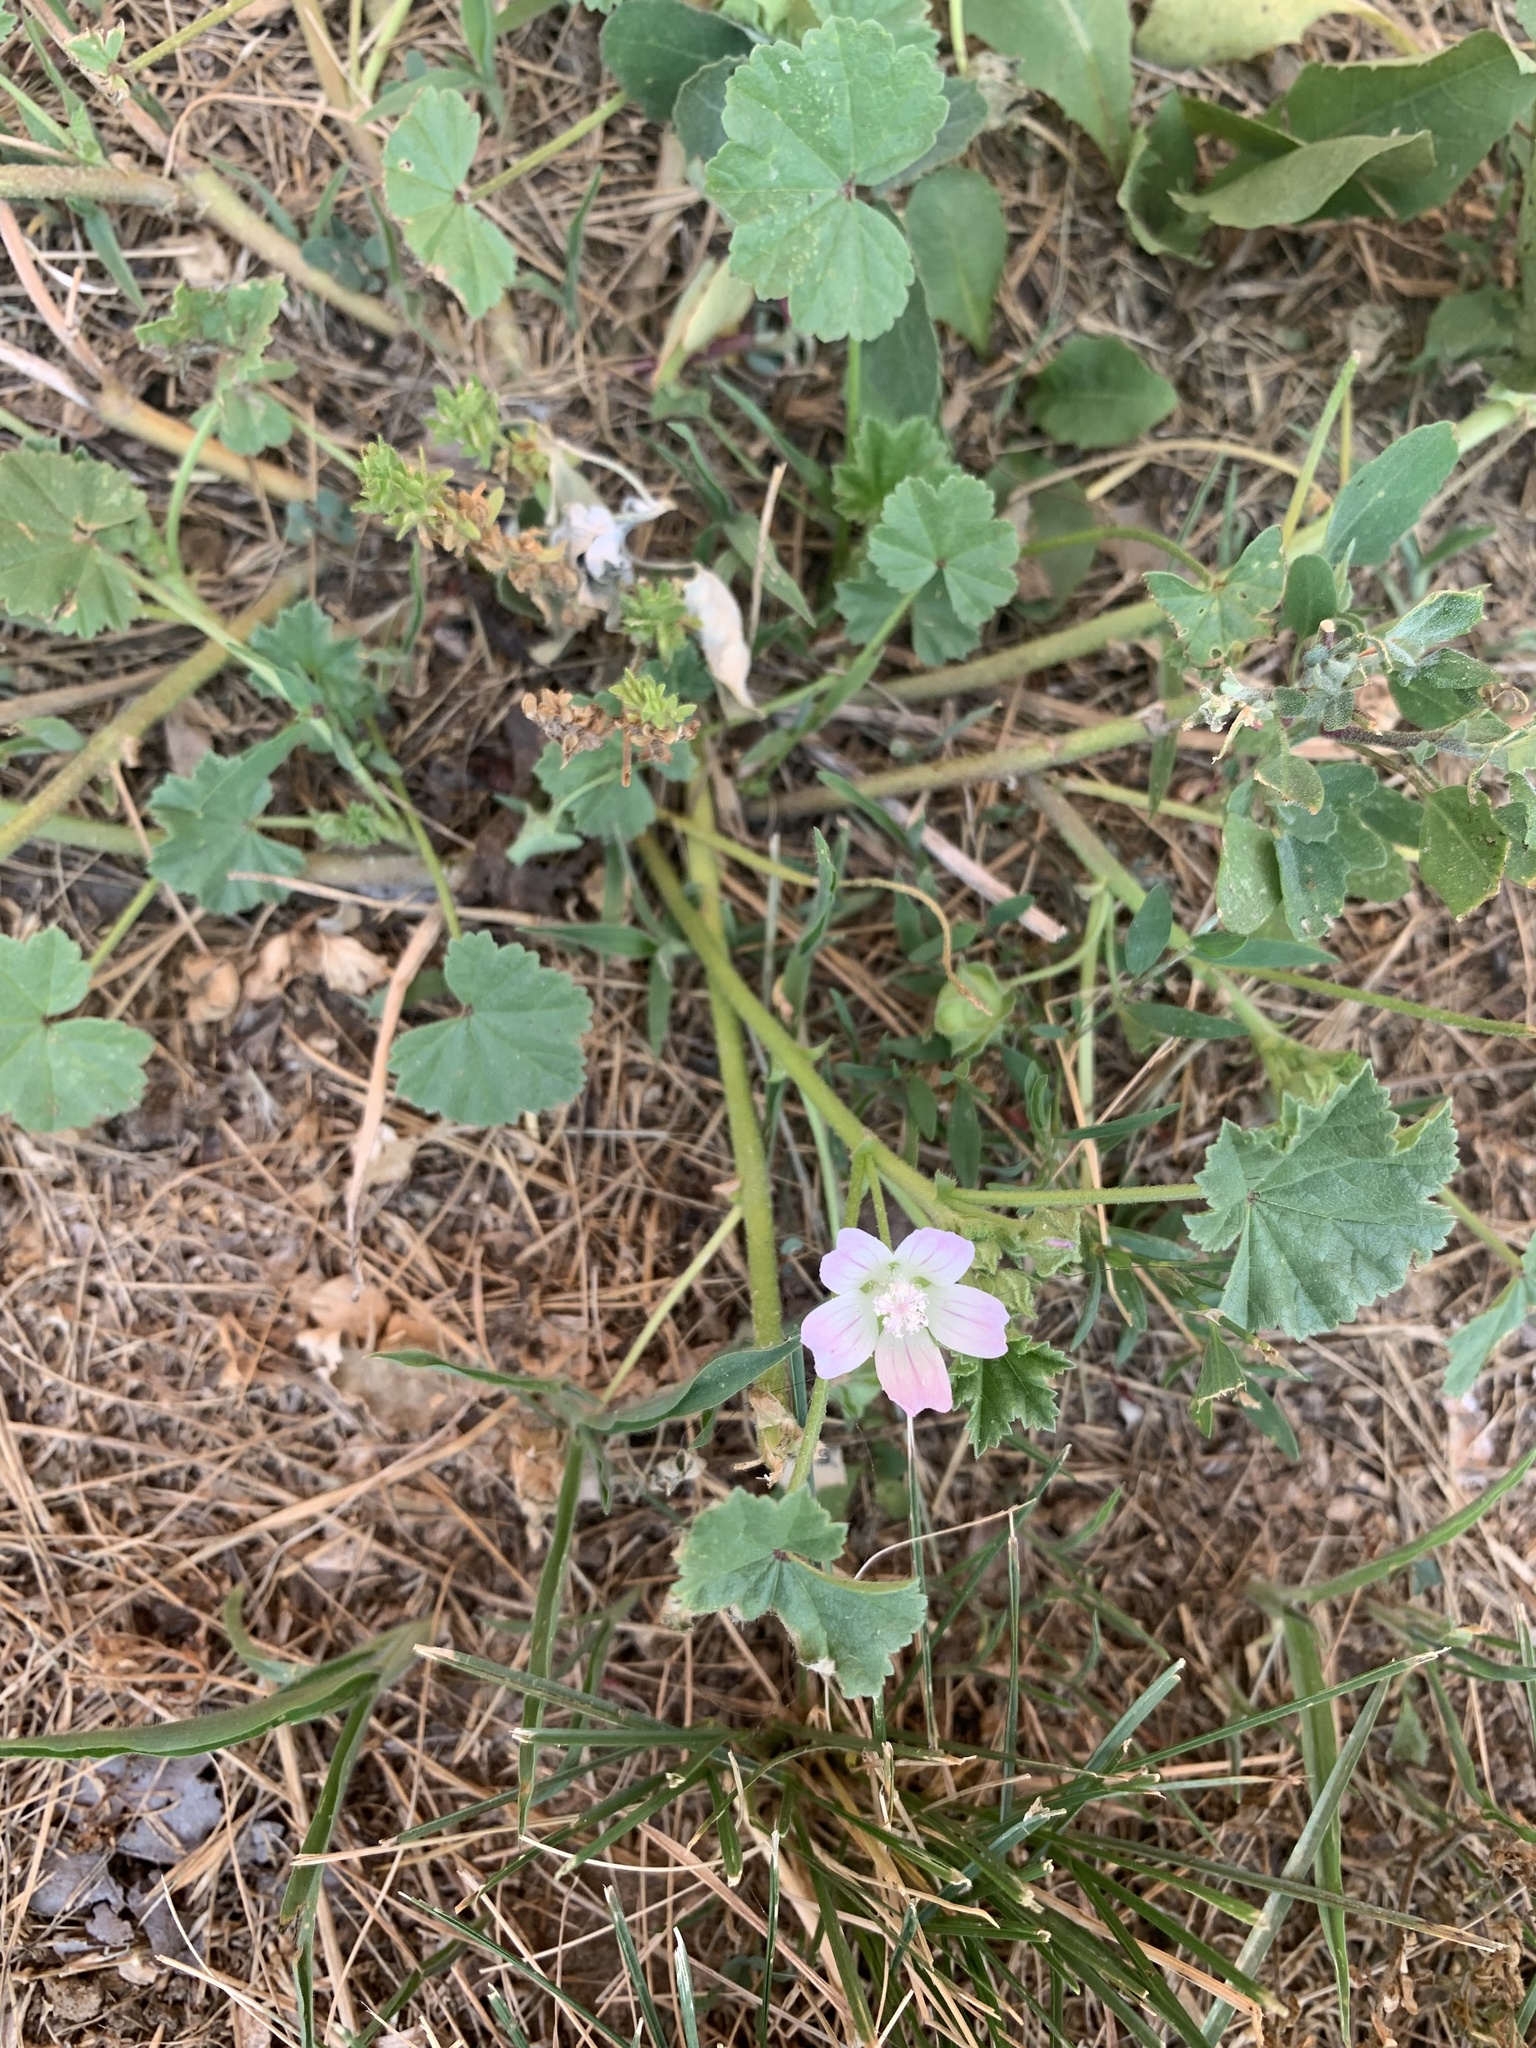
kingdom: Plantae
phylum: Tracheophyta
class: Magnoliopsida
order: Malvales
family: Malvaceae
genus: Malva
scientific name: Malva neglecta
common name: Common mallow
